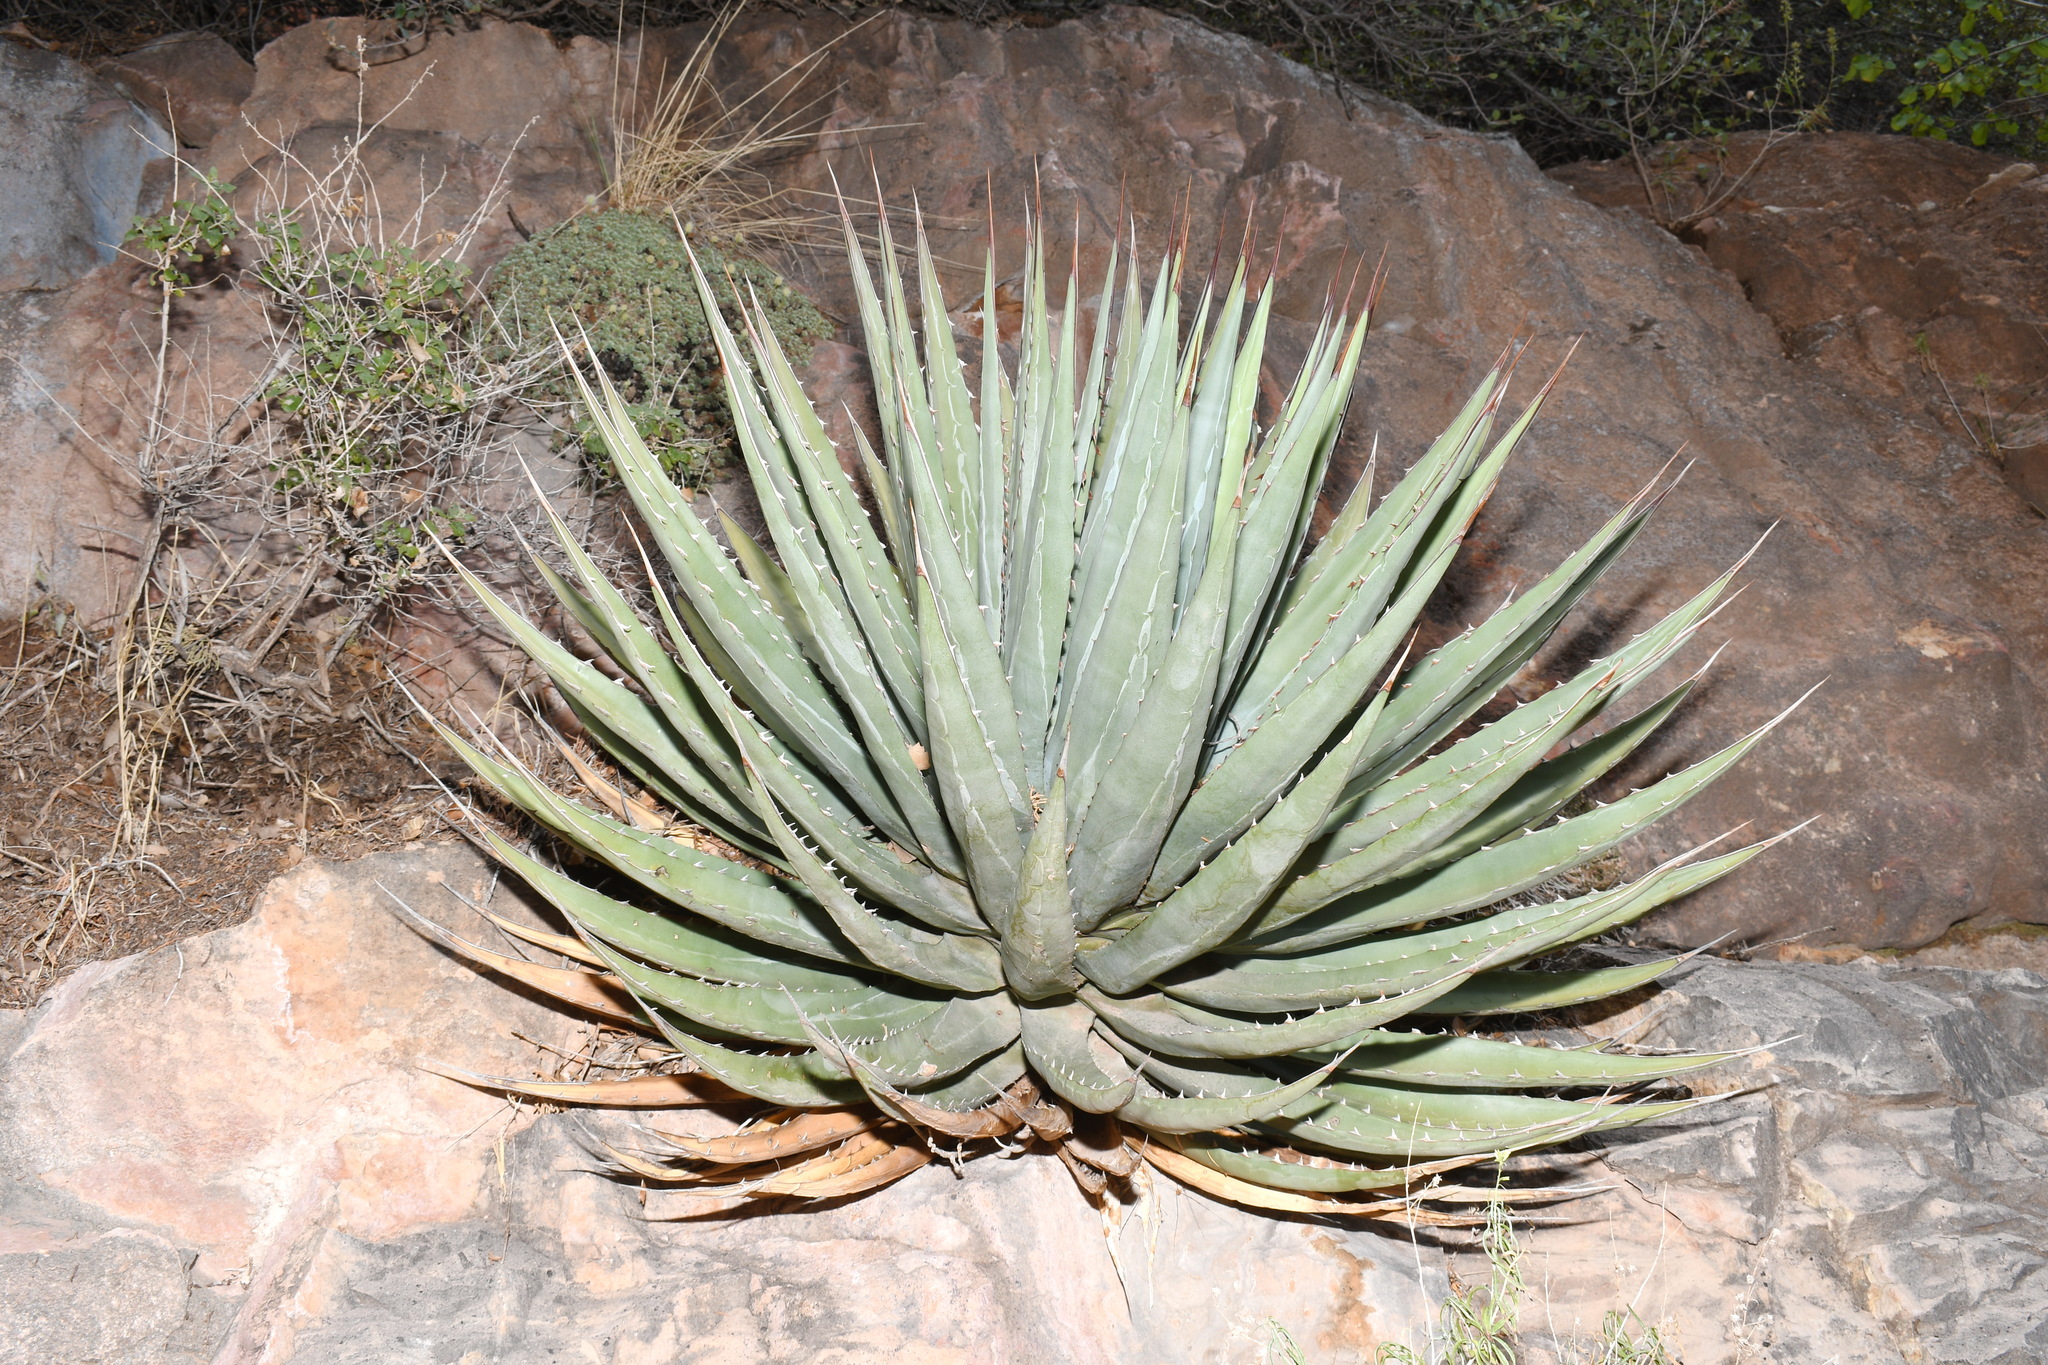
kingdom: Plantae
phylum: Tracheophyta
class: Liliopsida
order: Asparagales
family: Asparagaceae
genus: Agave
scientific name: Agave utahensis
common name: Utah agave
